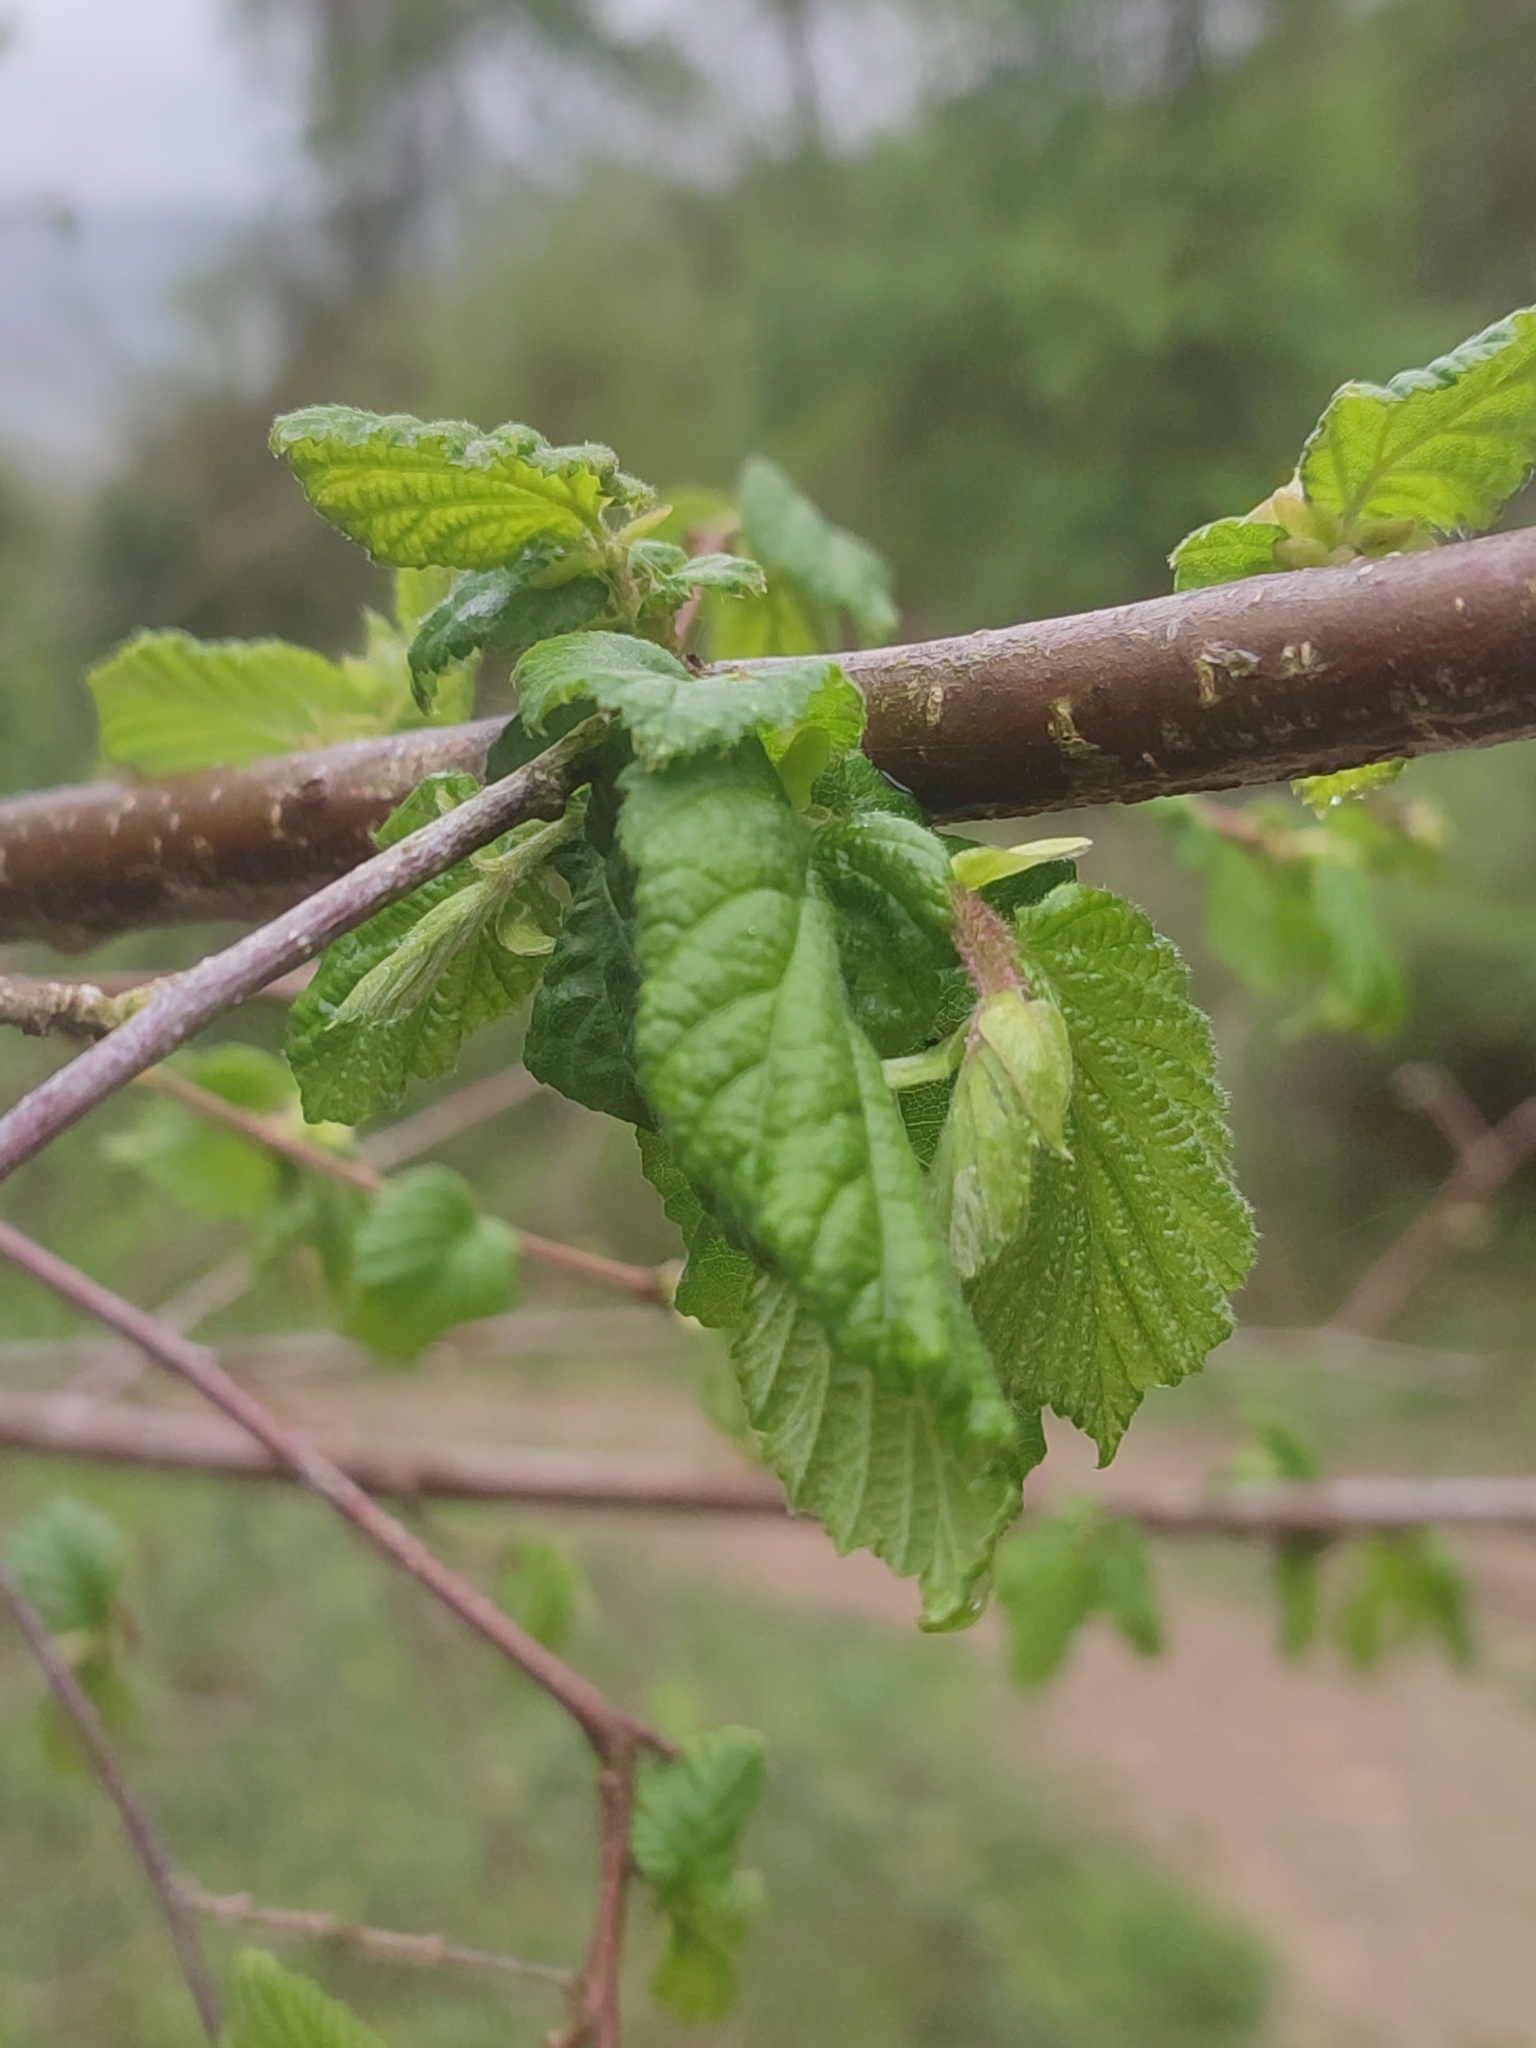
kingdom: Plantae
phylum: Tracheophyta
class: Magnoliopsida
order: Fagales
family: Betulaceae
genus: Corylus
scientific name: Corylus avellana
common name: European hazel
